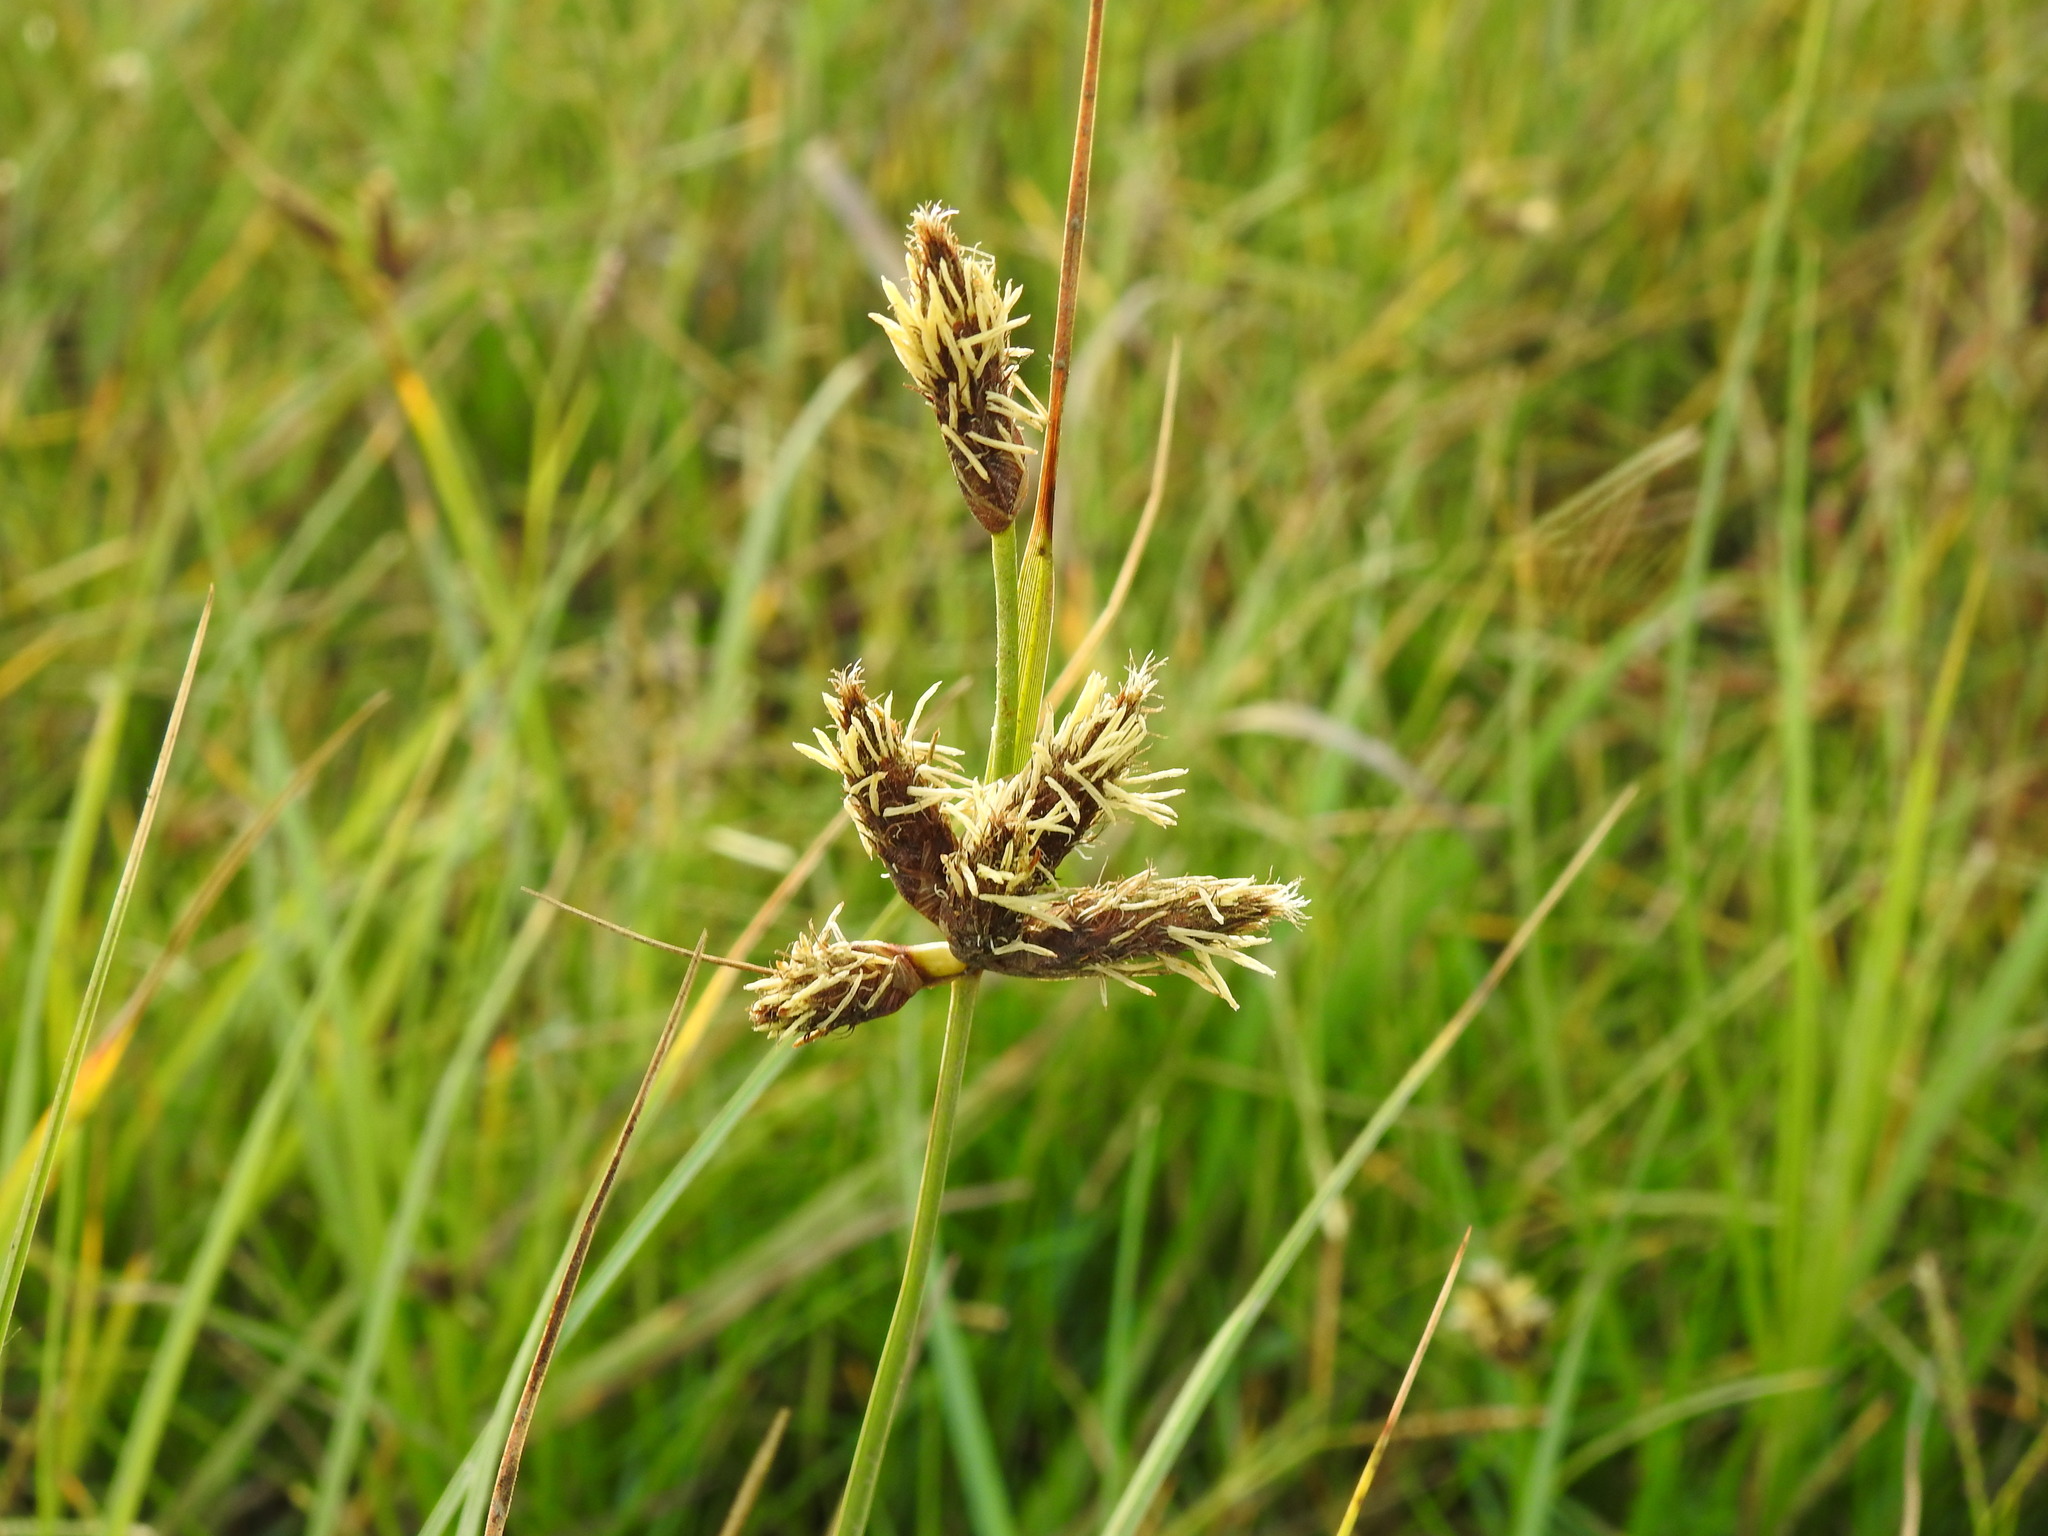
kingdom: Plantae
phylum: Tracheophyta
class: Liliopsida
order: Poales
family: Cyperaceae
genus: Bolboschoenus
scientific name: Bolboschoenus maritimus
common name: Sea club-rush
